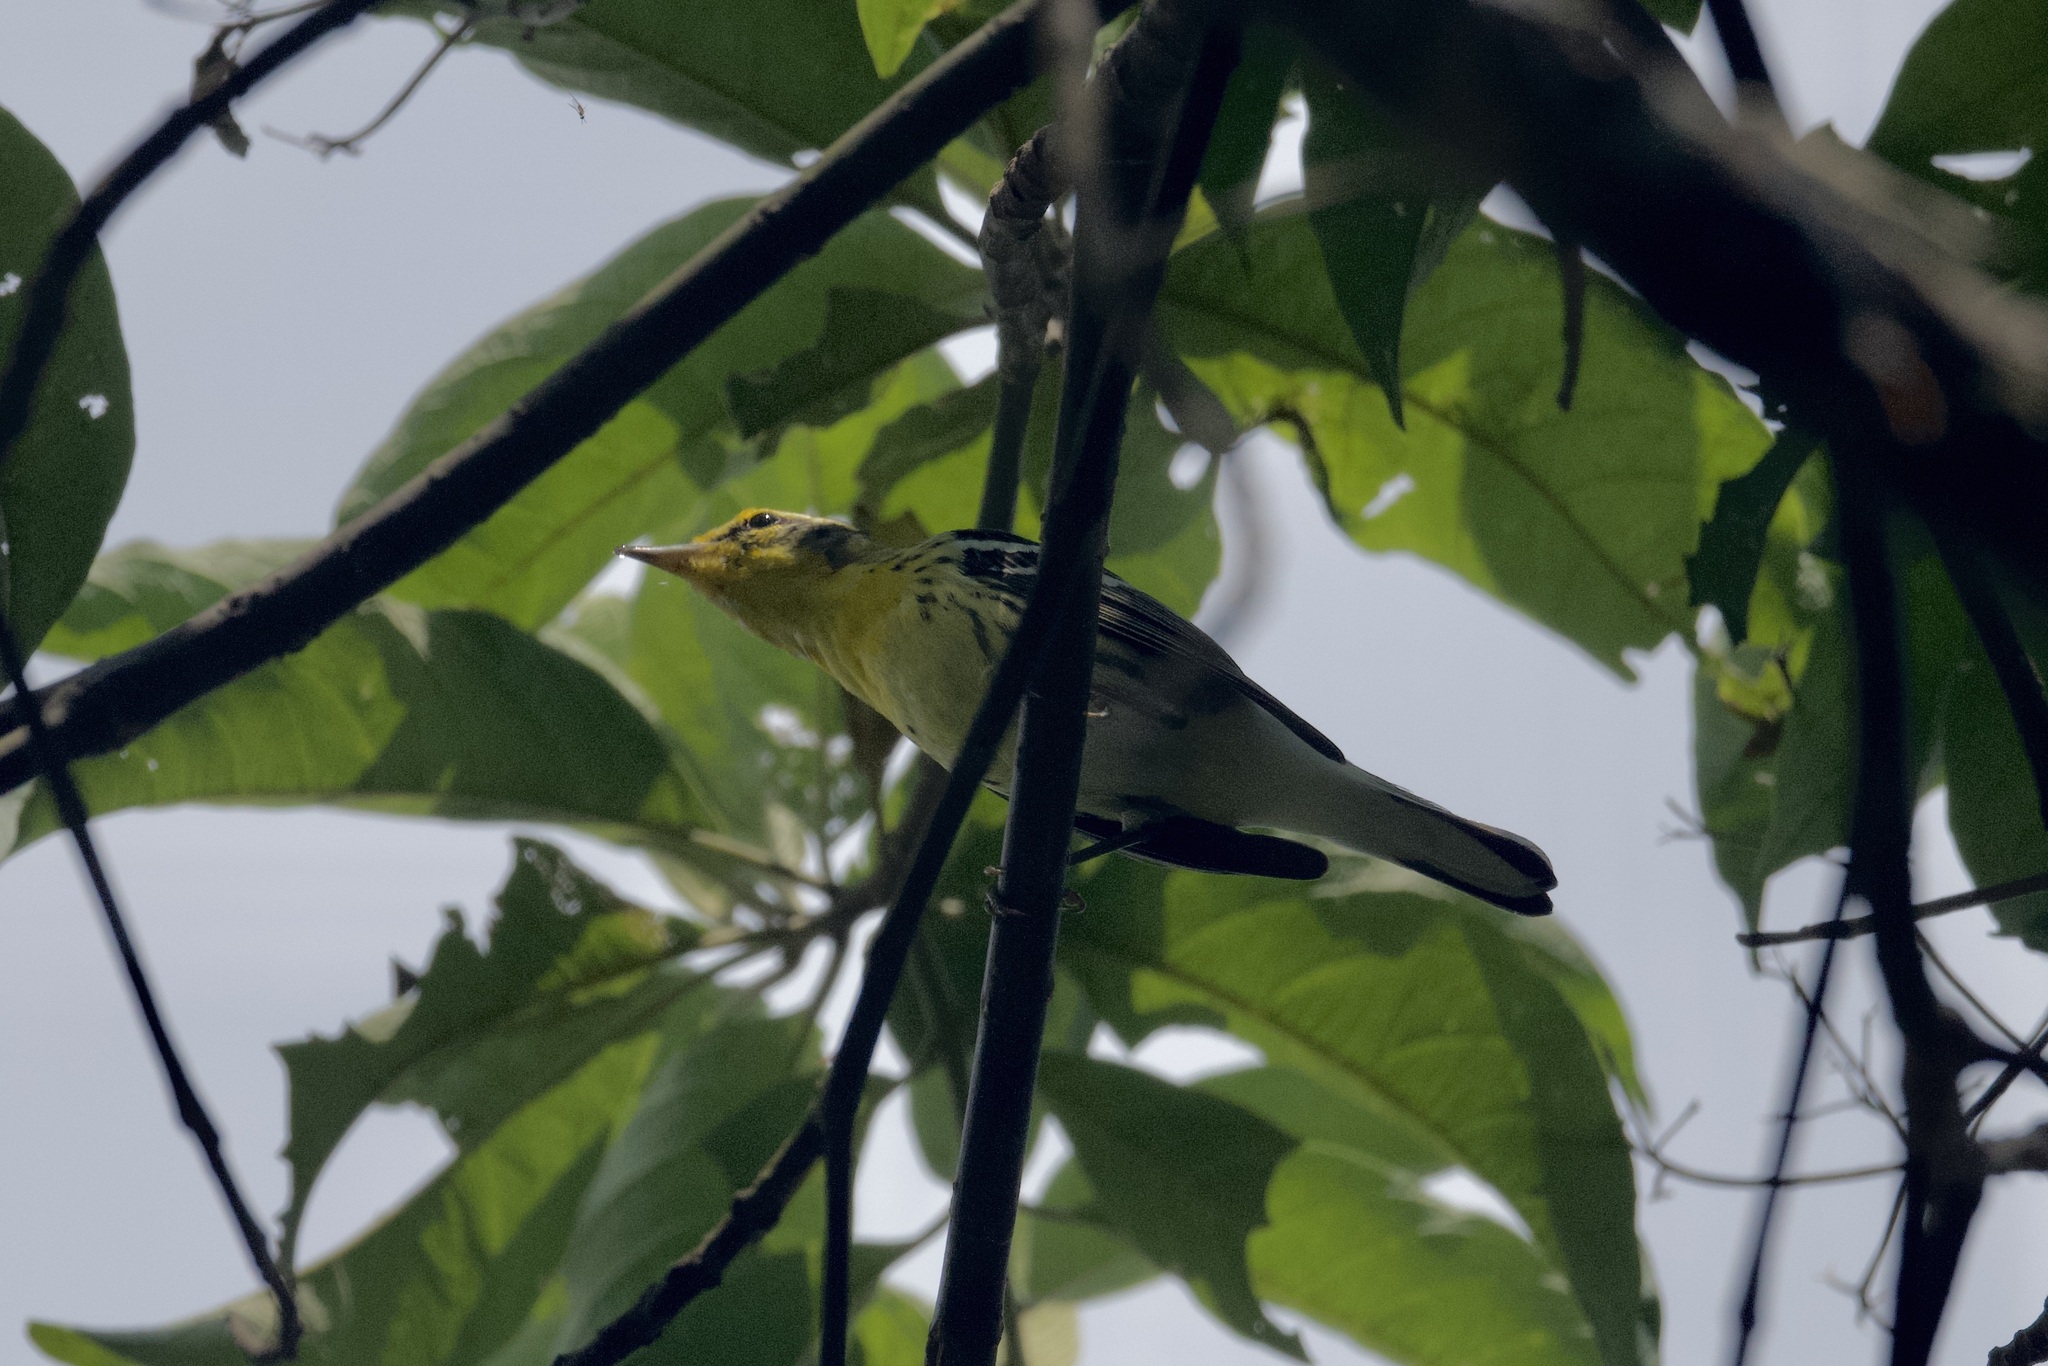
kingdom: Animalia
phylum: Chordata
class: Aves
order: Passeriformes
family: Parulidae
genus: Setophaga
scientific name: Setophaga fusca
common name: Blackburnian warbler
